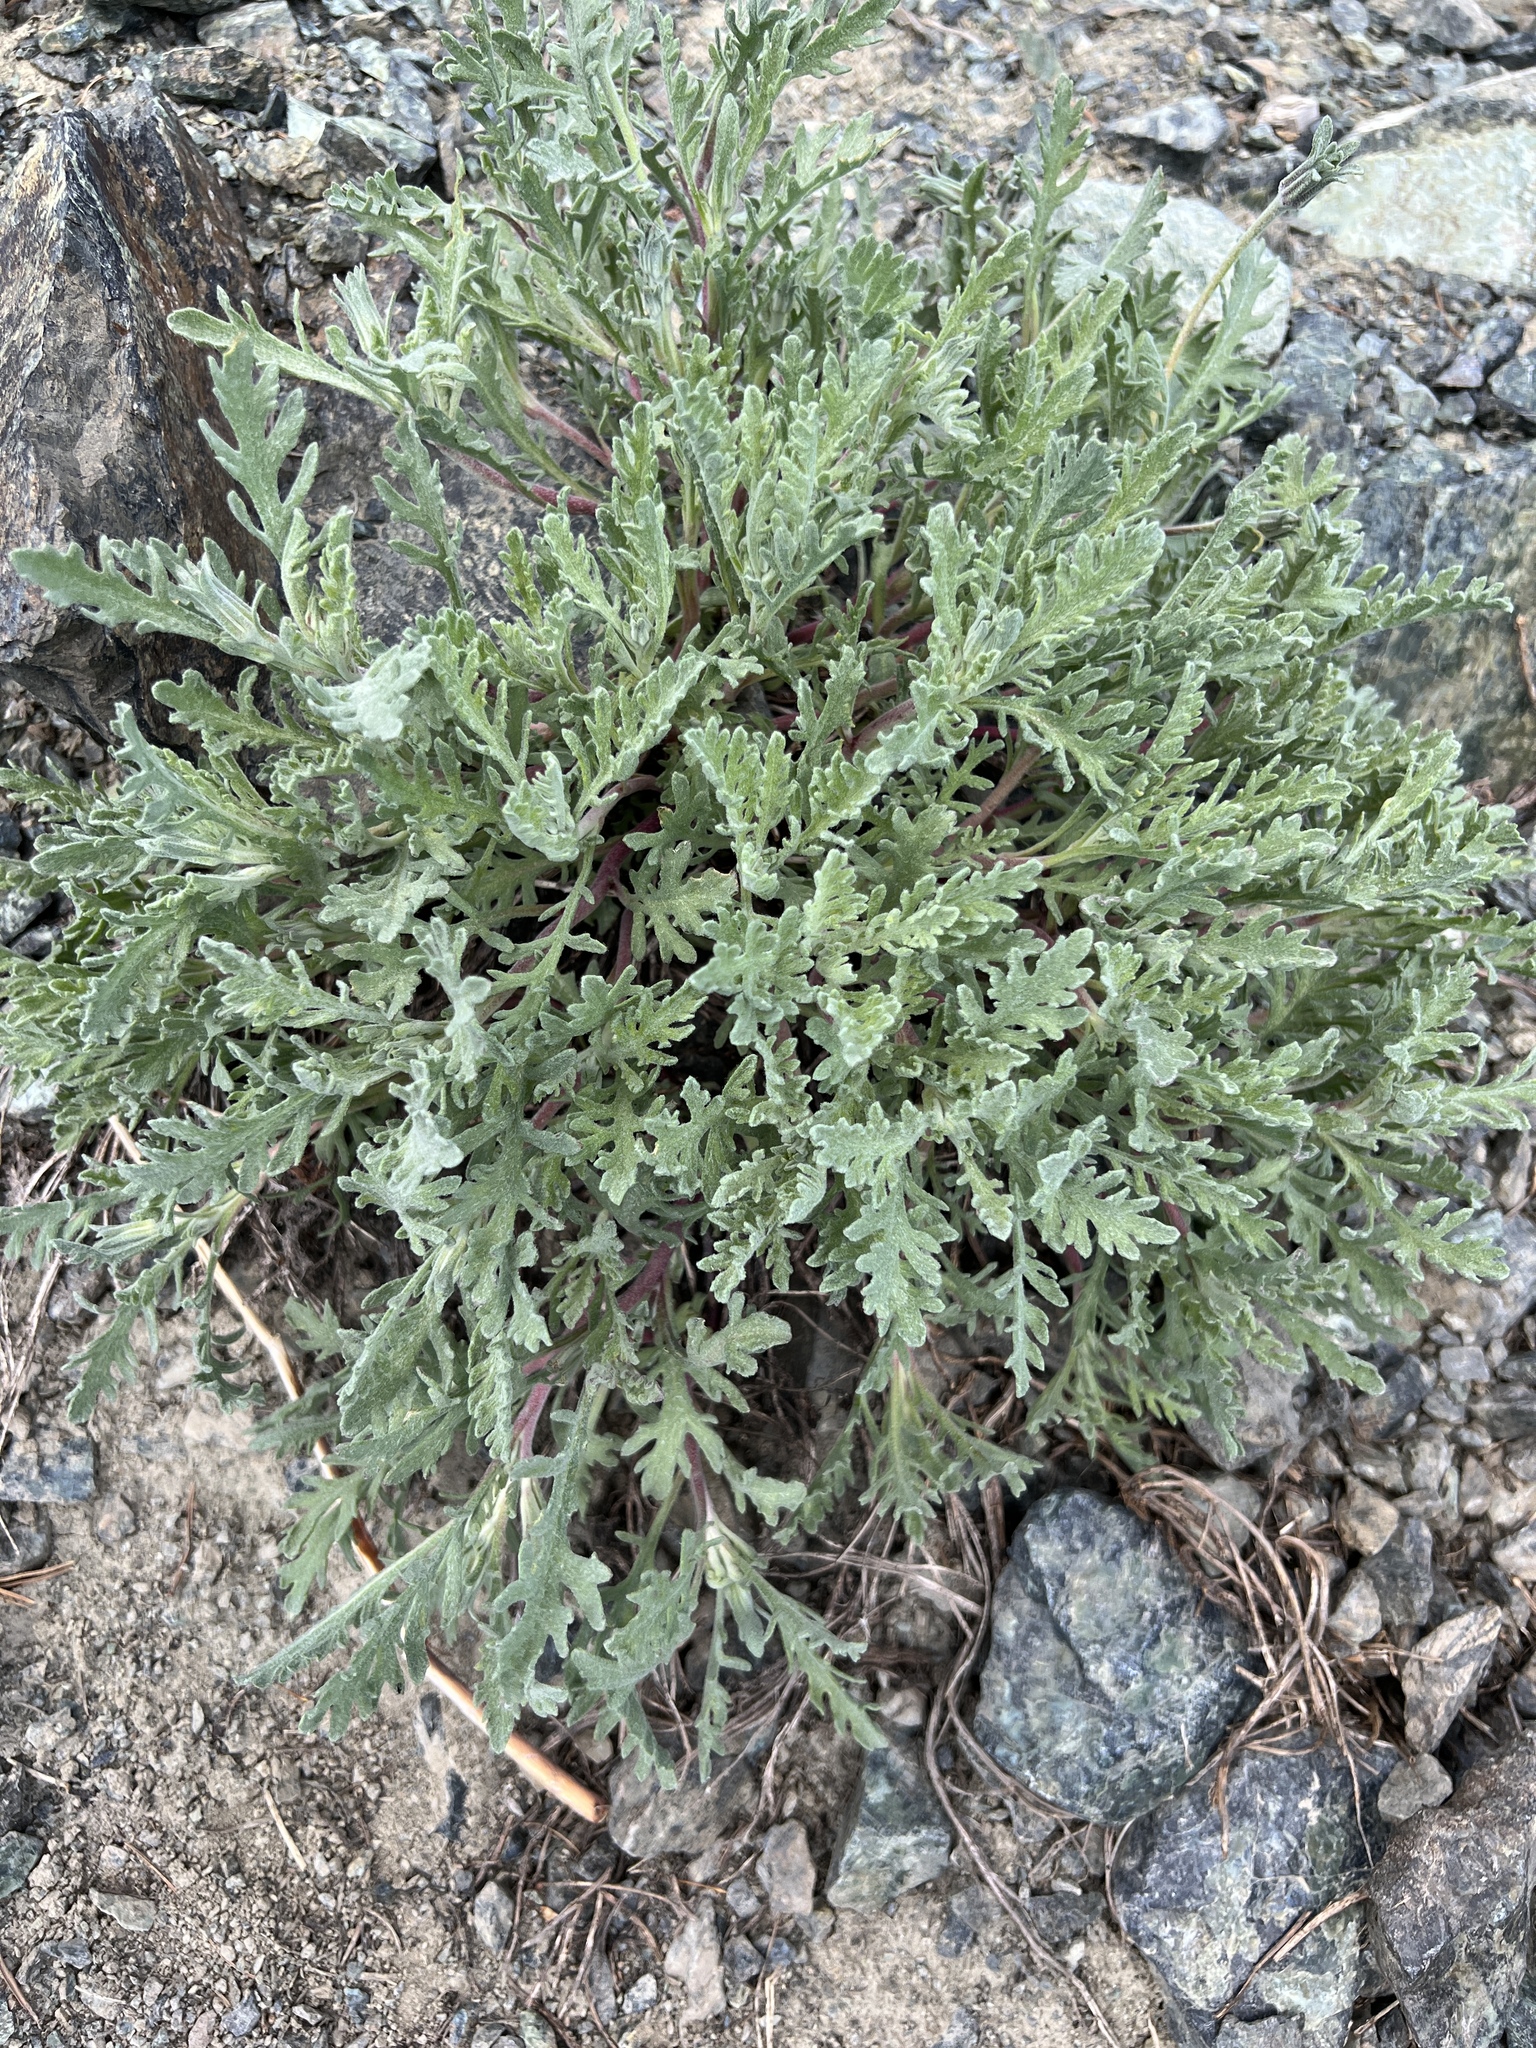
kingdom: Plantae
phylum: Tracheophyta
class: Magnoliopsida
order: Asterales
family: Asteraceae
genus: Chaenactis
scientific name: Chaenactis thompsonii
